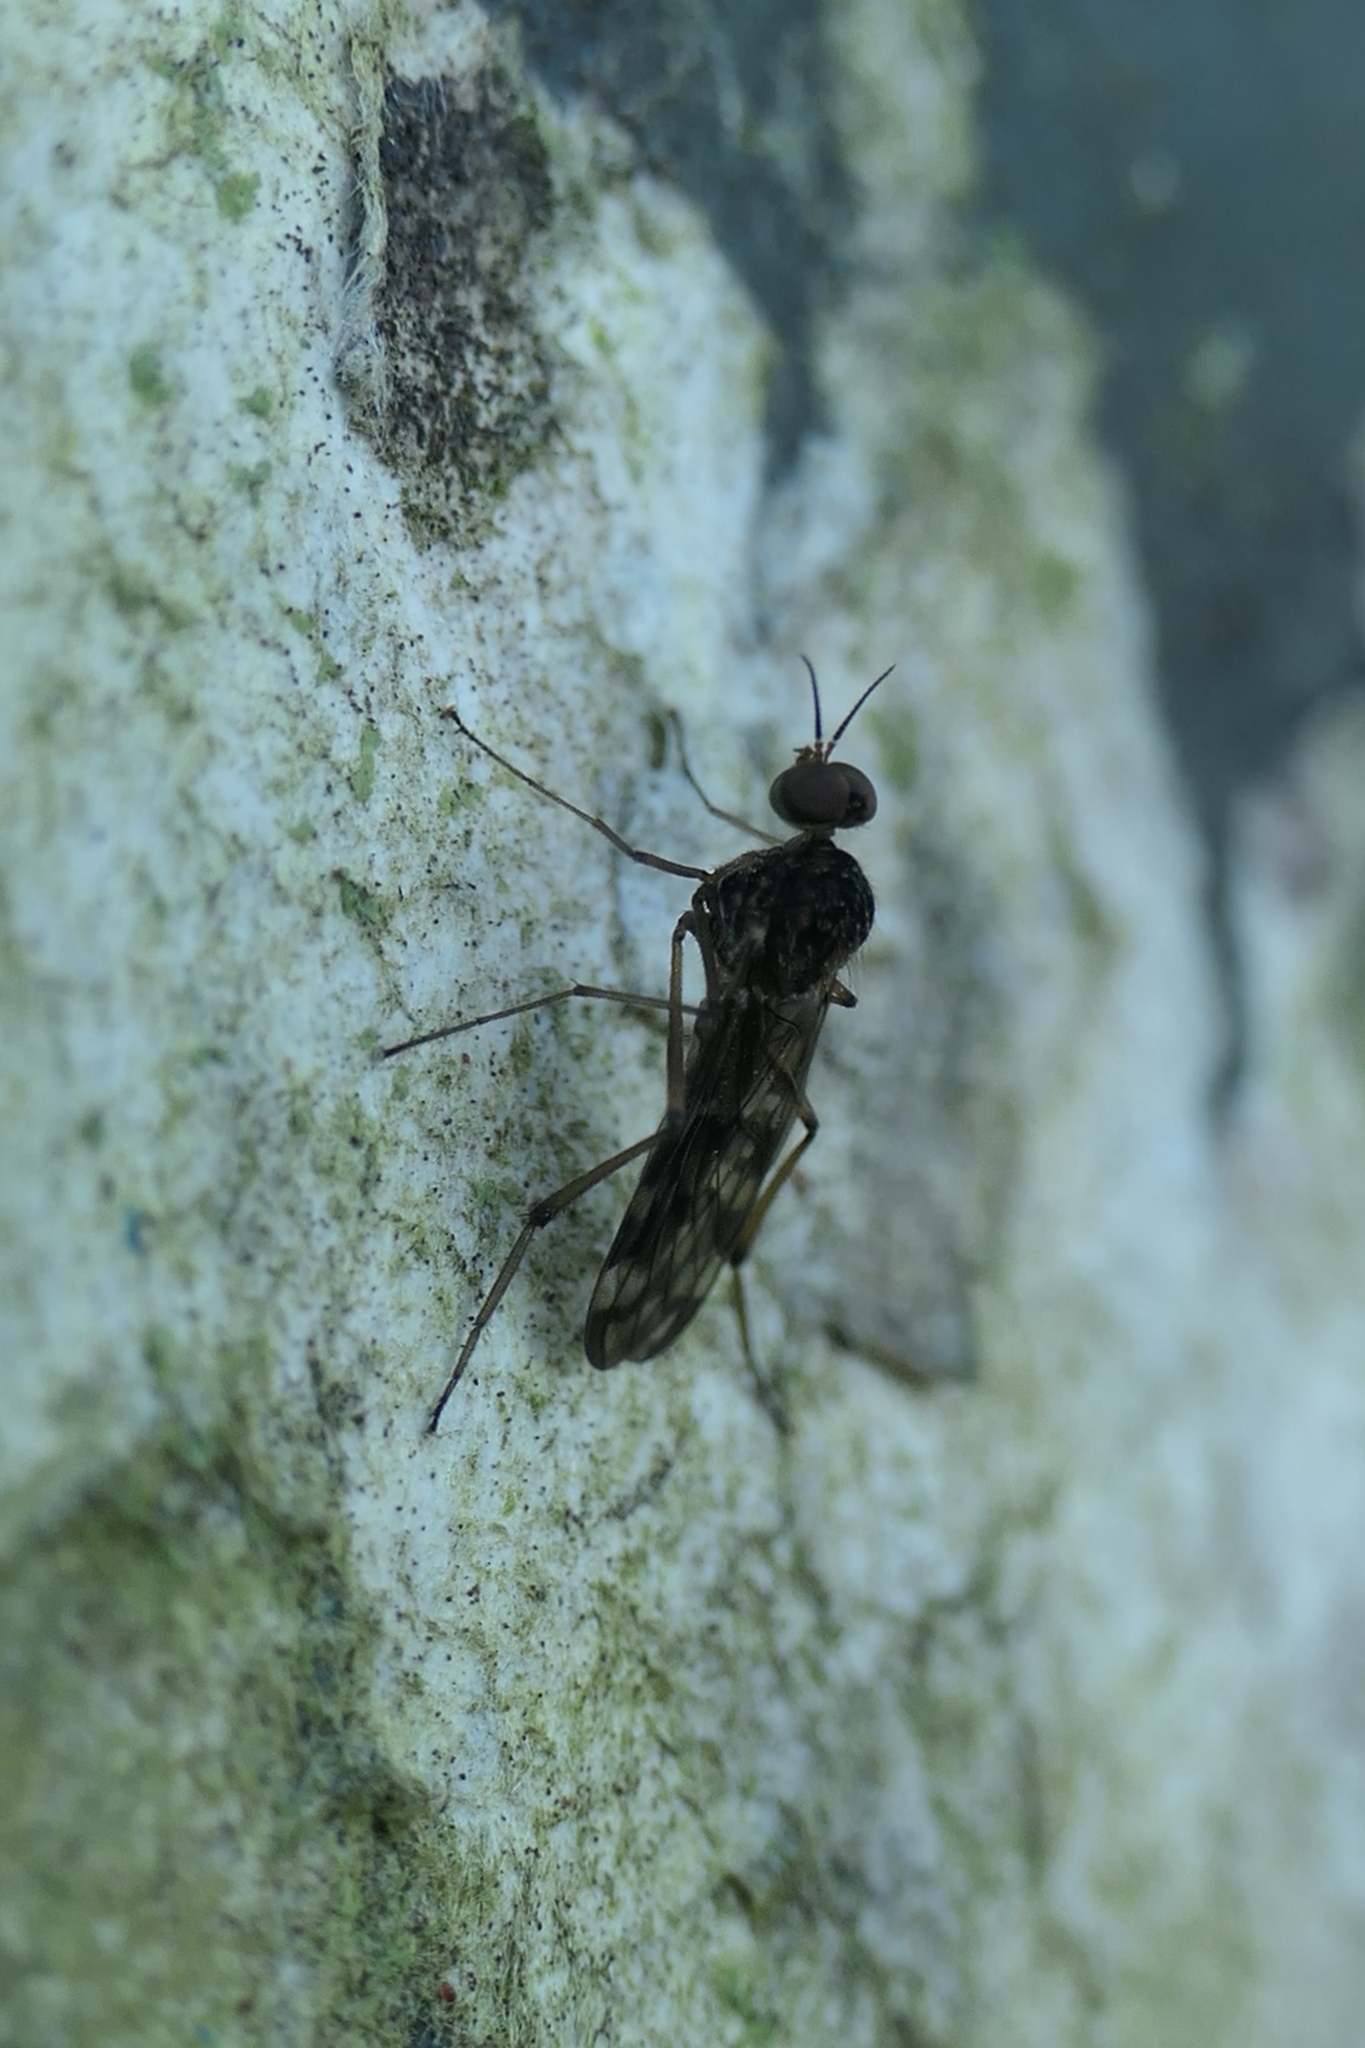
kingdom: Animalia
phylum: Arthropoda
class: Insecta
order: Diptera
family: Anisopodidae
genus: Sylvicola
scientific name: Sylvicola dubius
